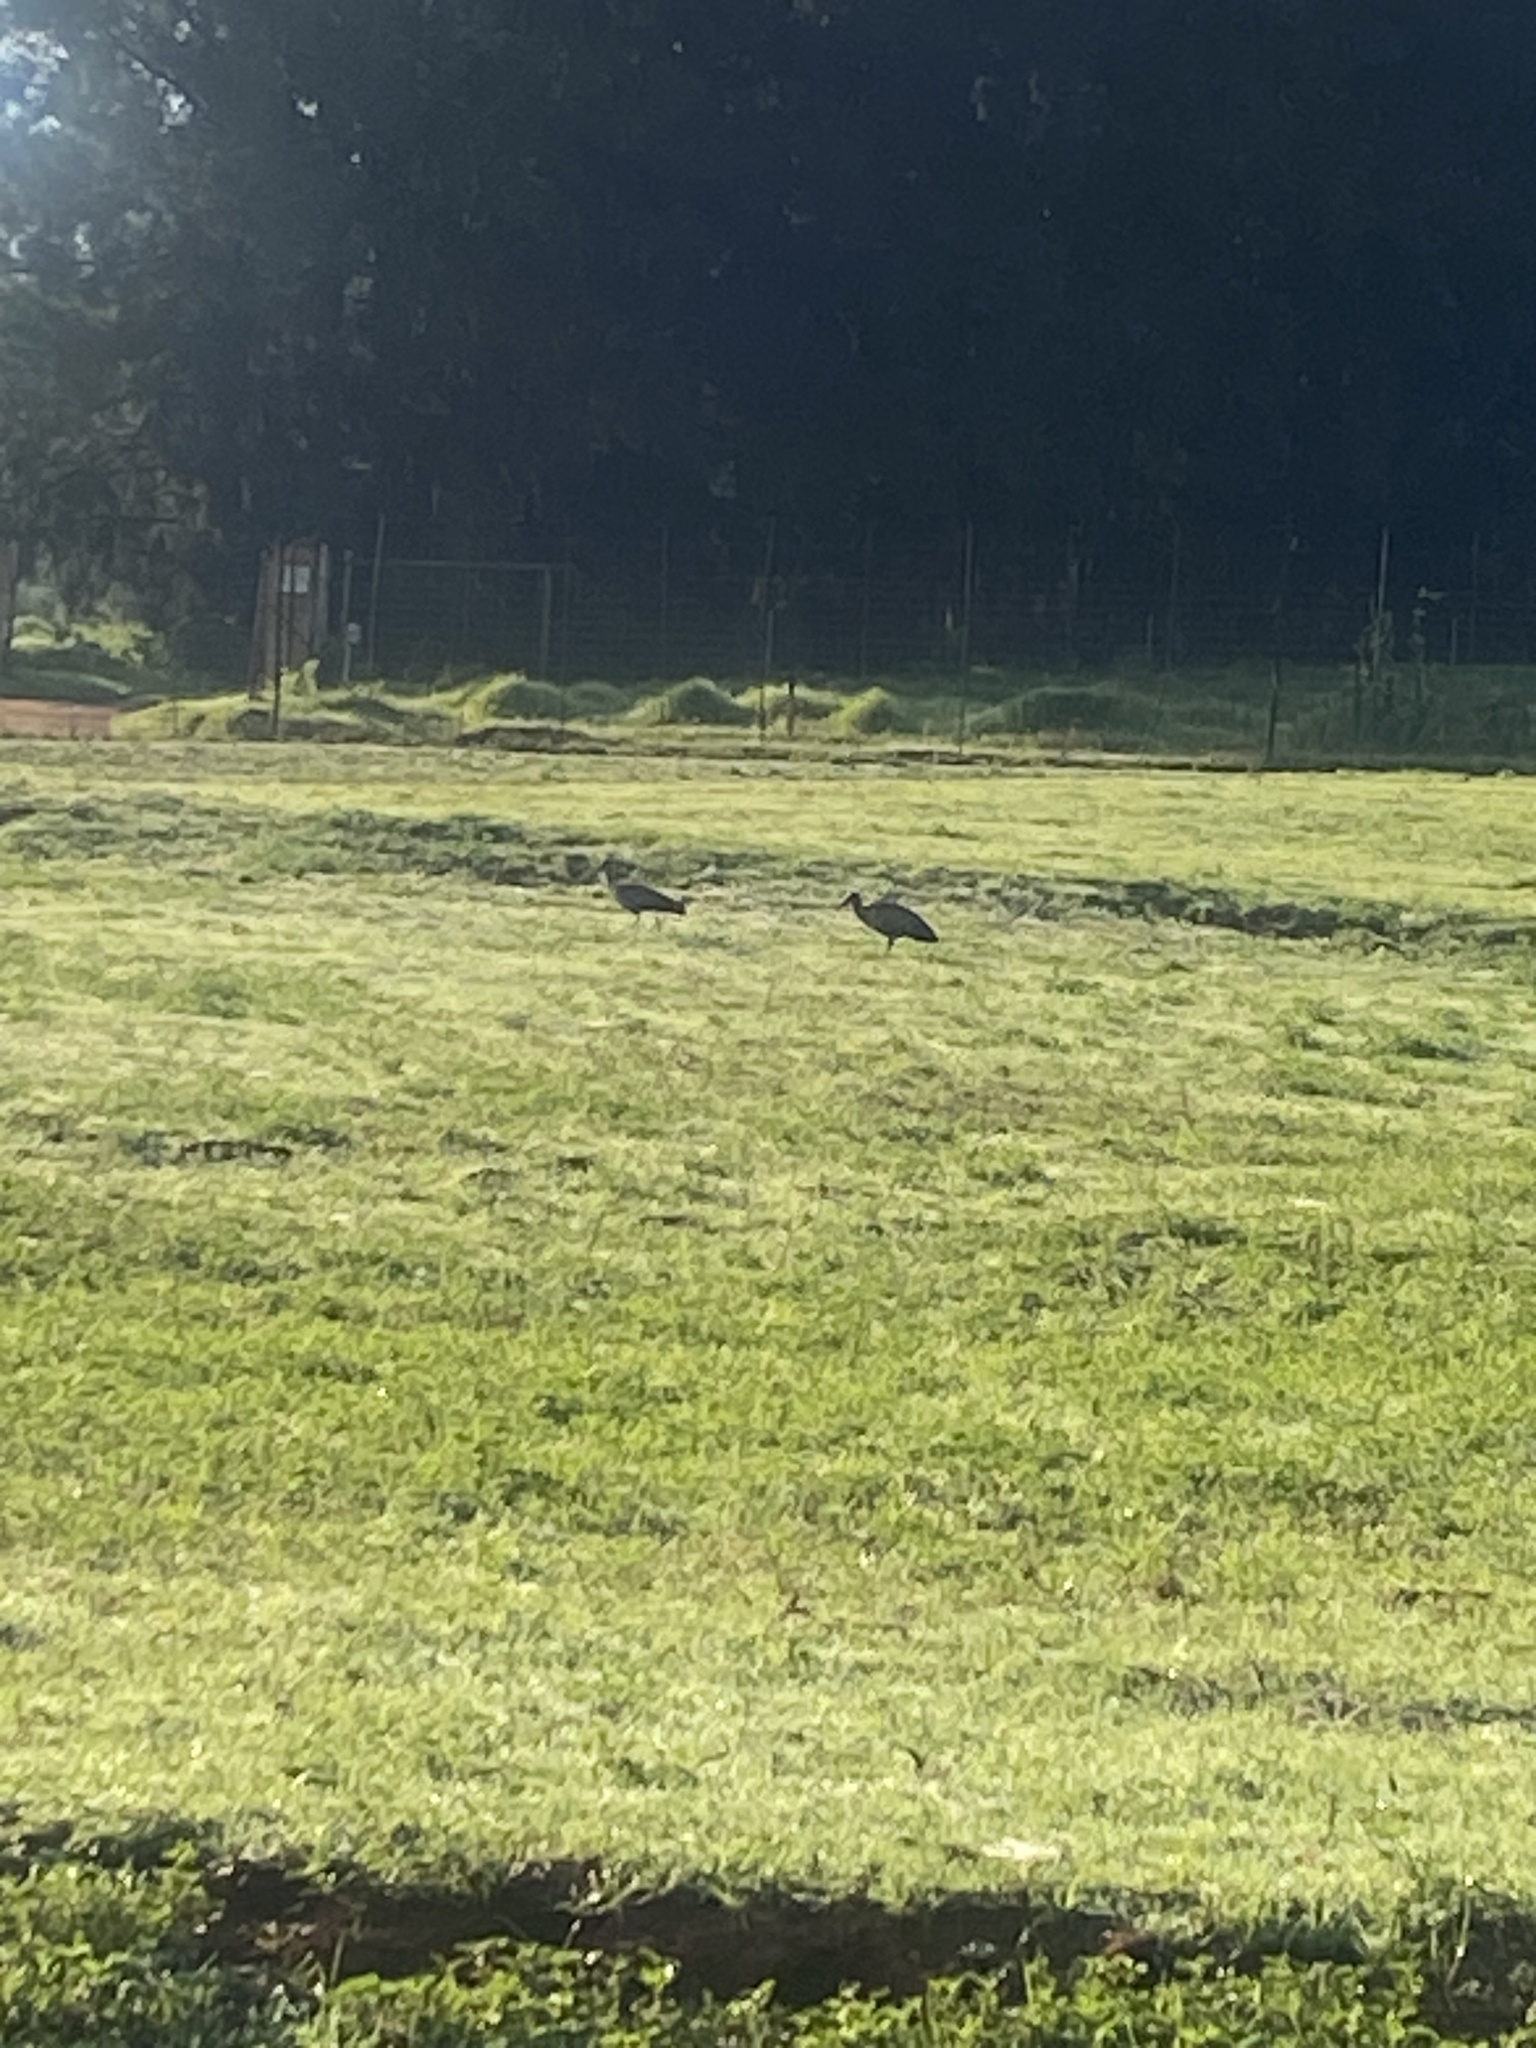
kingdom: Animalia
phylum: Chordata
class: Aves
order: Pelecaniformes
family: Threskiornithidae
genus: Bostrychia
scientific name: Bostrychia hagedash
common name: Hadada ibis
